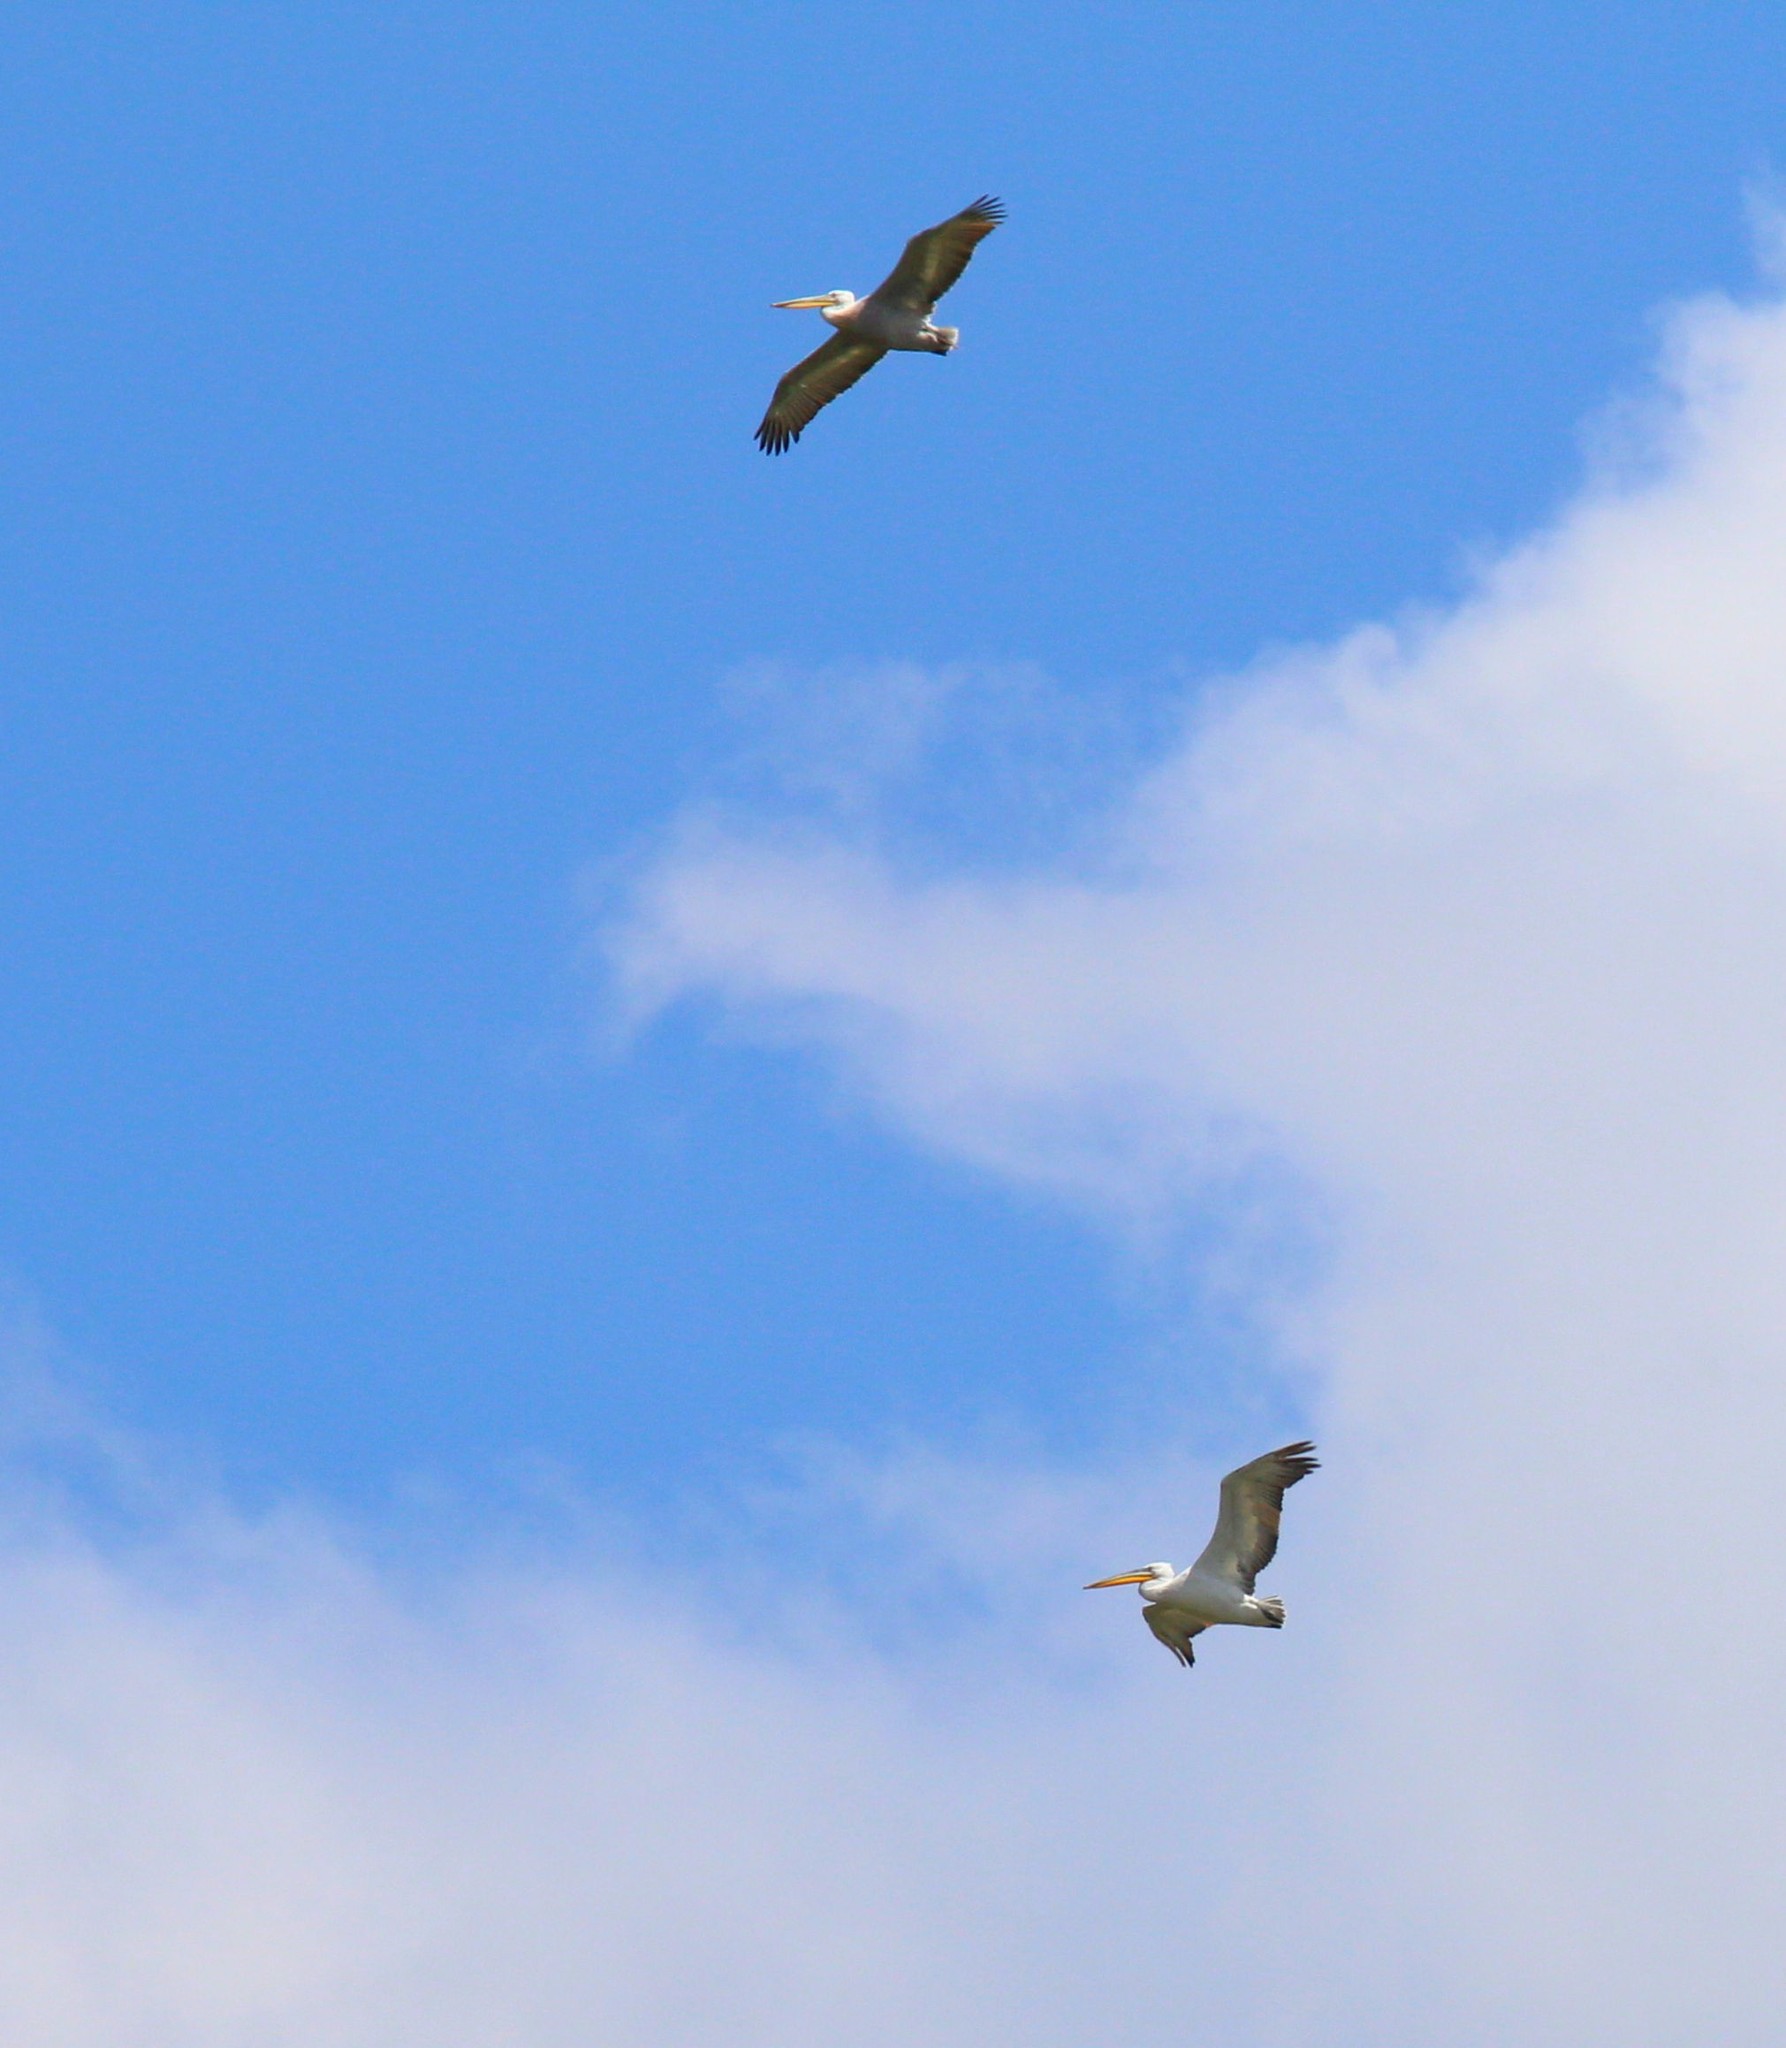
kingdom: Animalia
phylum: Chordata
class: Aves
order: Pelecaniformes
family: Pelecanidae
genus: Pelecanus
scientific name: Pelecanus crispus
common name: Dalmatian pelican
